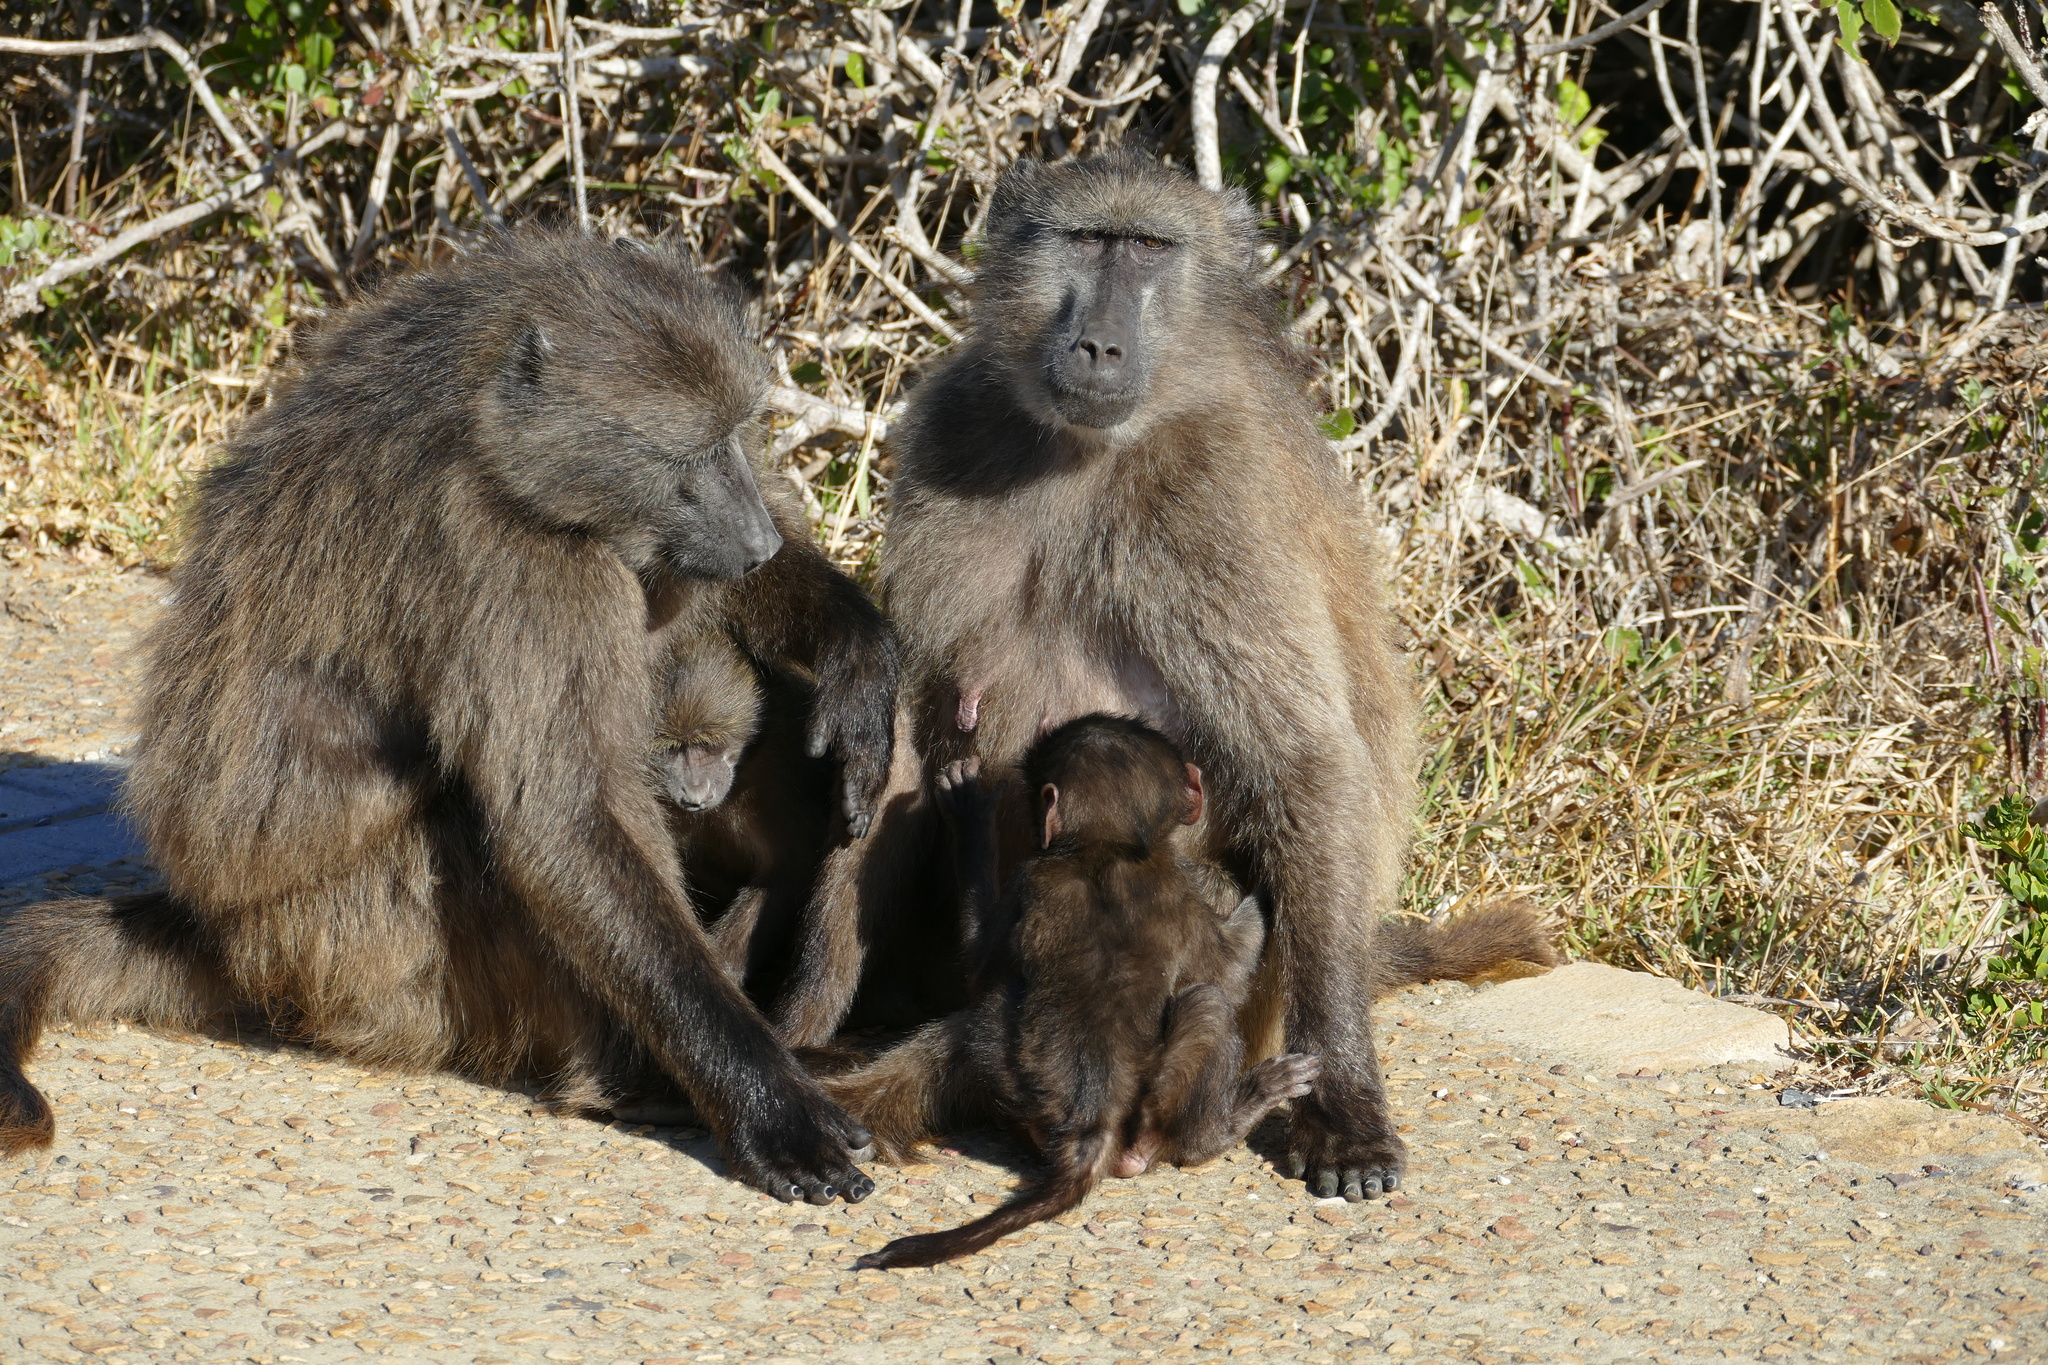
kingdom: Animalia
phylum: Chordata
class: Mammalia
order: Primates
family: Cercopithecidae
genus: Papio
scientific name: Papio ursinus
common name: Chacma baboon
